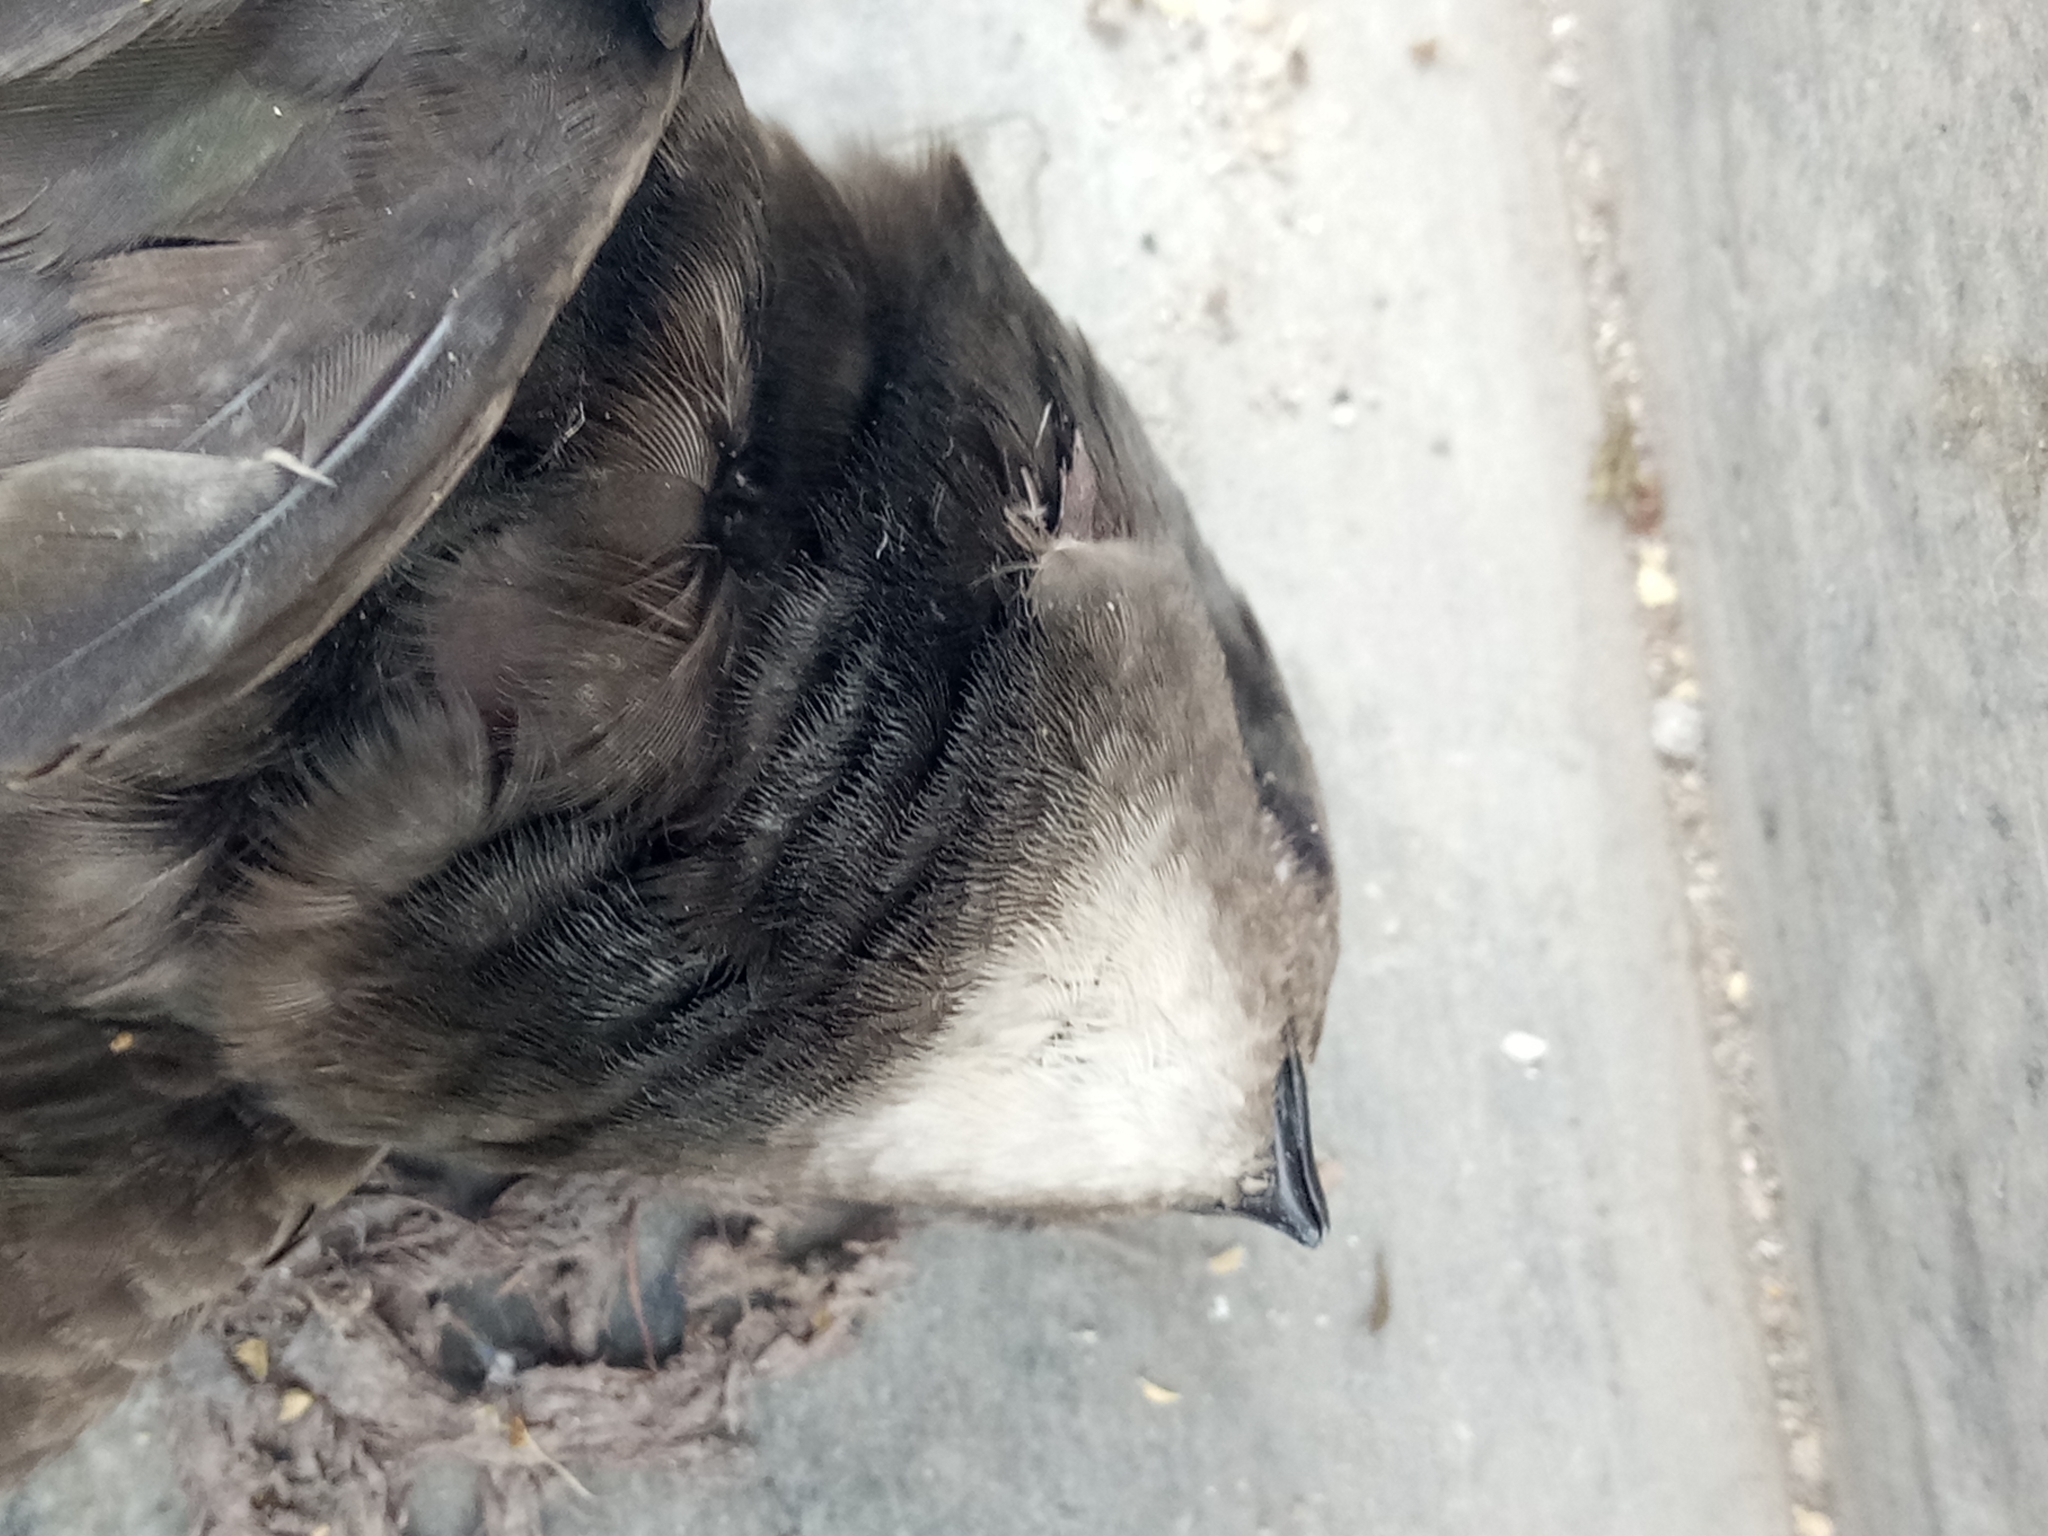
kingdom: Animalia
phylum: Chordata
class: Aves
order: Apodiformes
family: Apodidae
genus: Apus
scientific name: Apus pallidus
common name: Pallid swift
